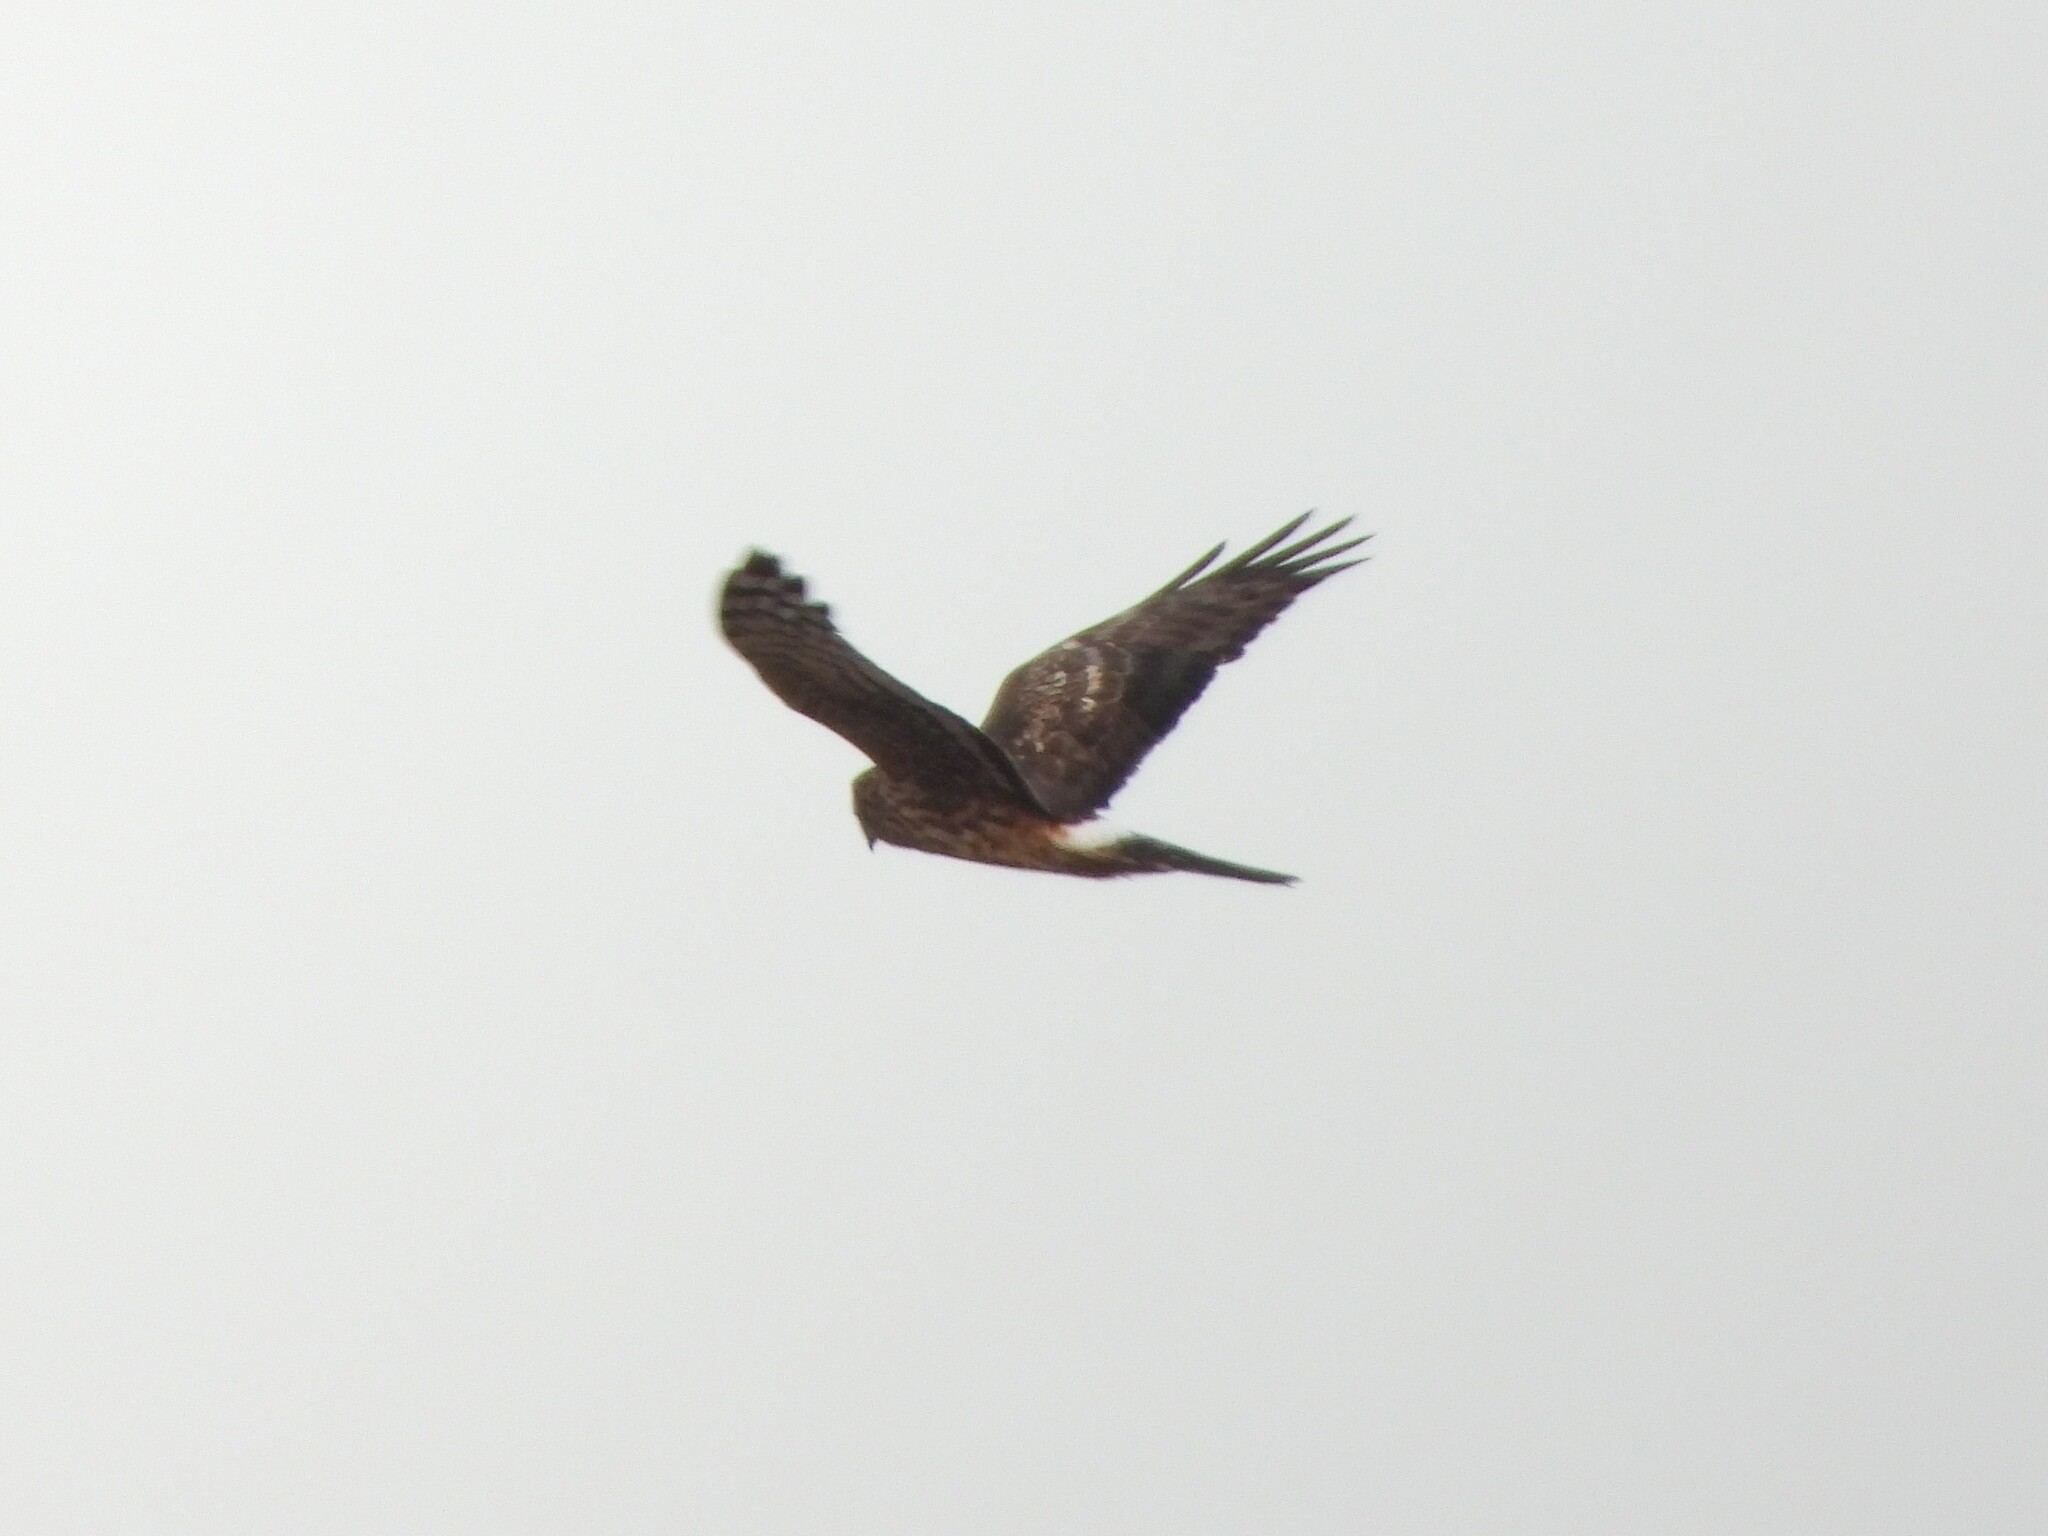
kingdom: Animalia
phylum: Chordata
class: Aves
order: Accipitriformes
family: Accipitridae
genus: Circus
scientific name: Circus cyaneus
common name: Hen harrier
